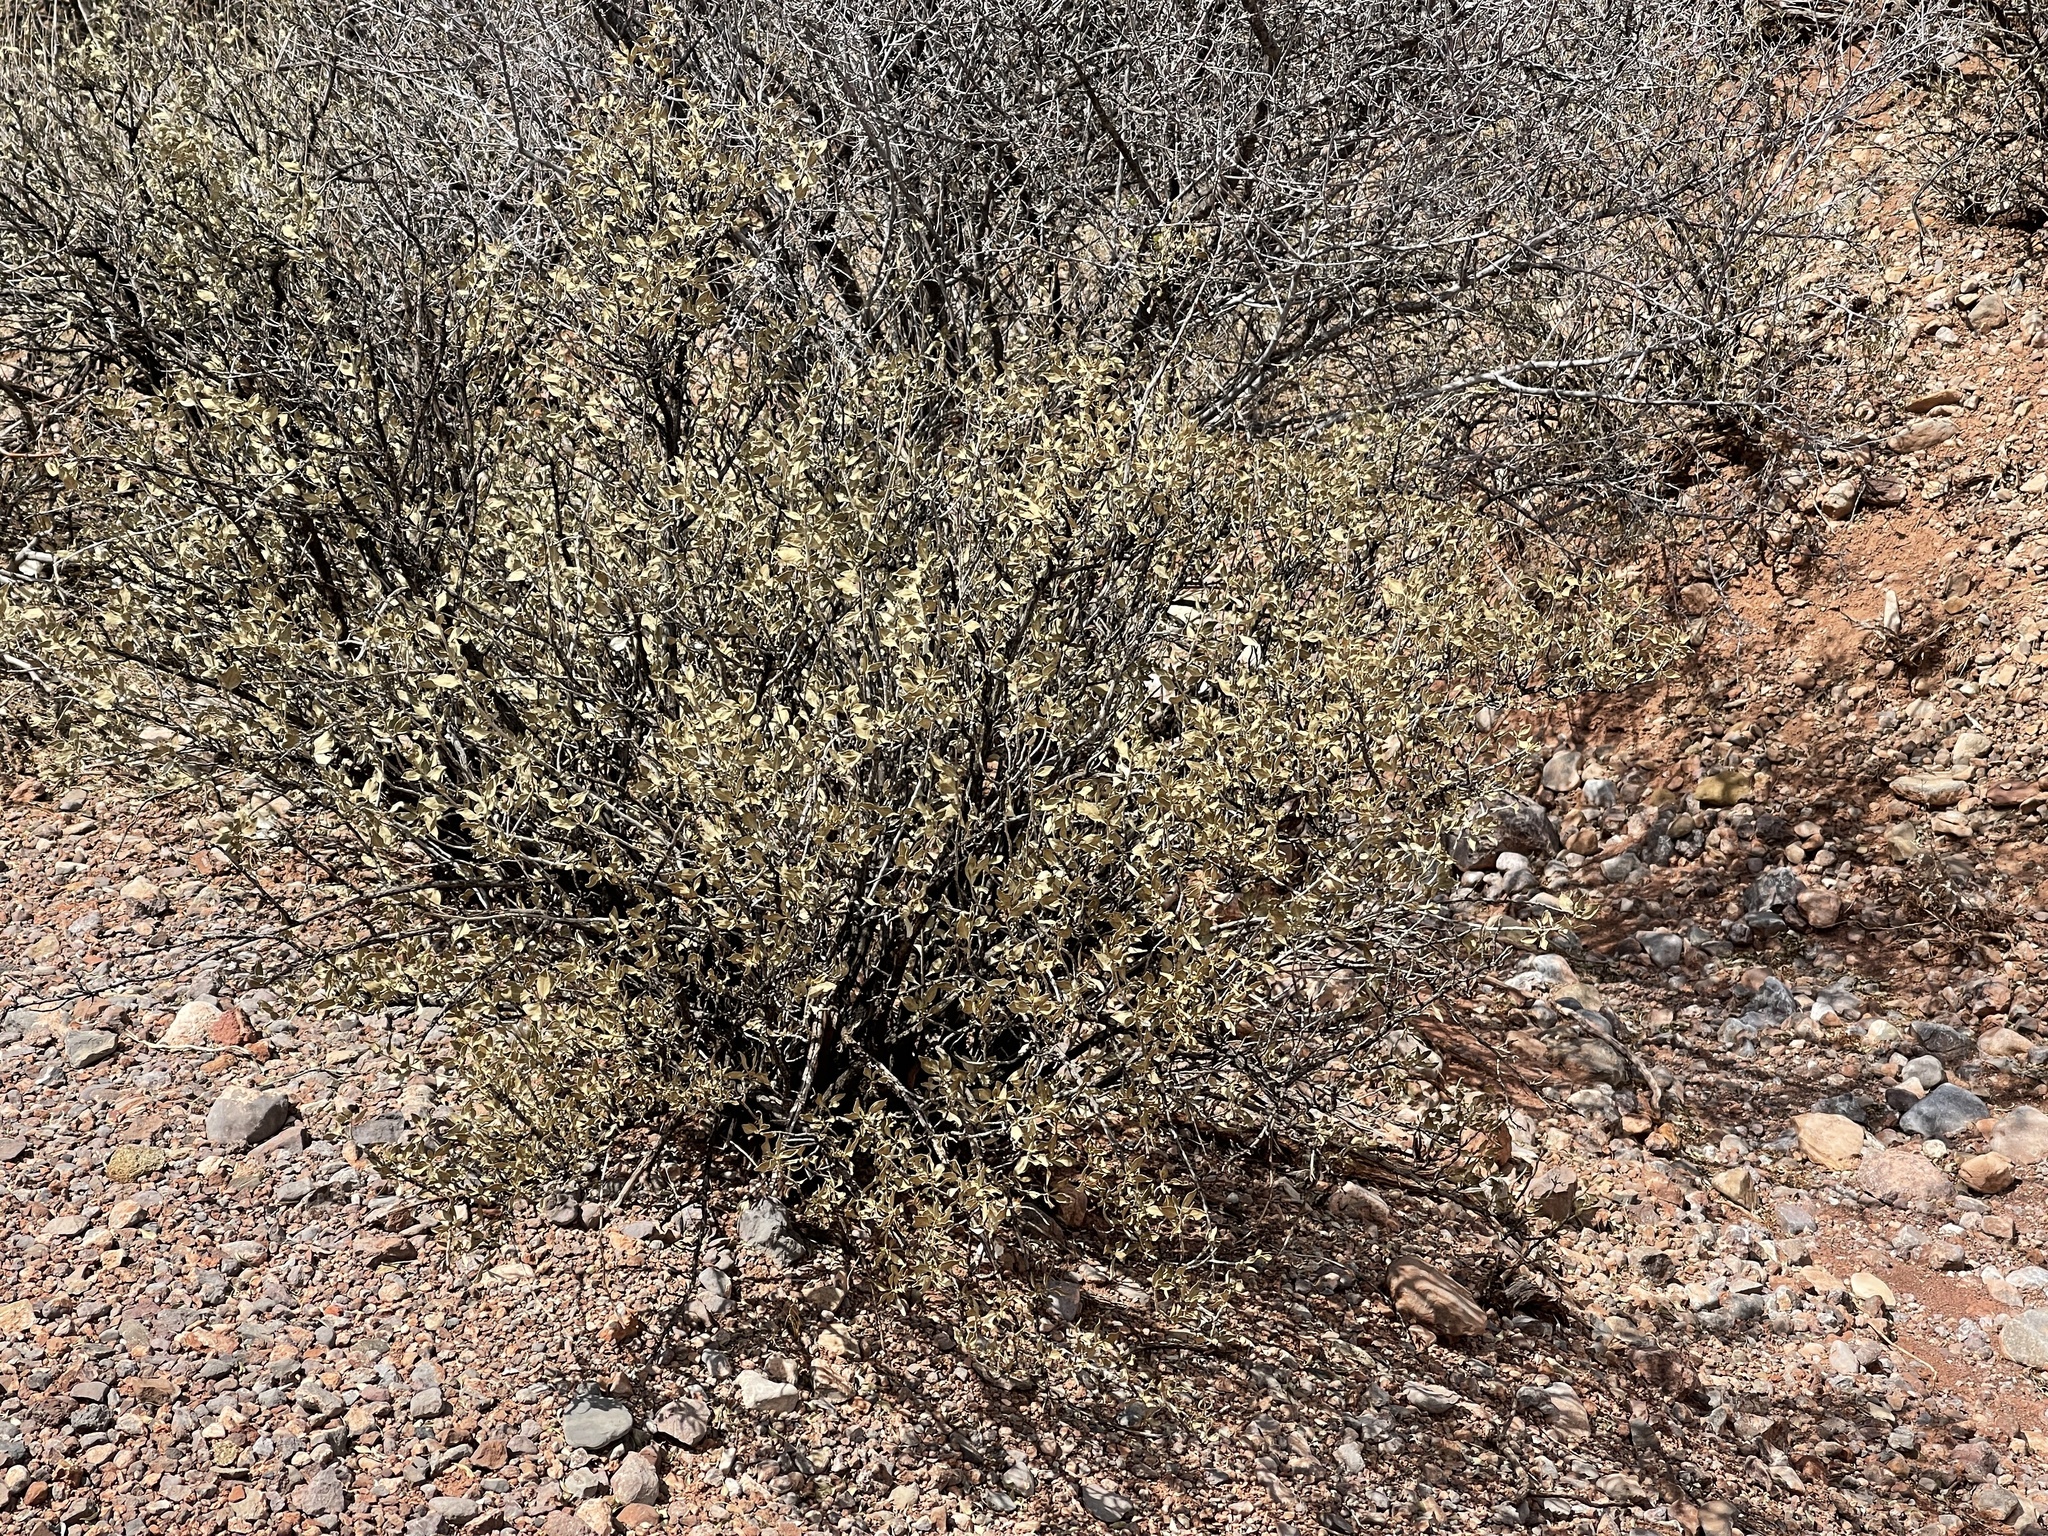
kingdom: Plantae
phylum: Tracheophyta
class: Magnoliopsida
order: Asterales
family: Asteraceae
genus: Flourensia
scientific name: Flourensia cernua
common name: Varnishbush
